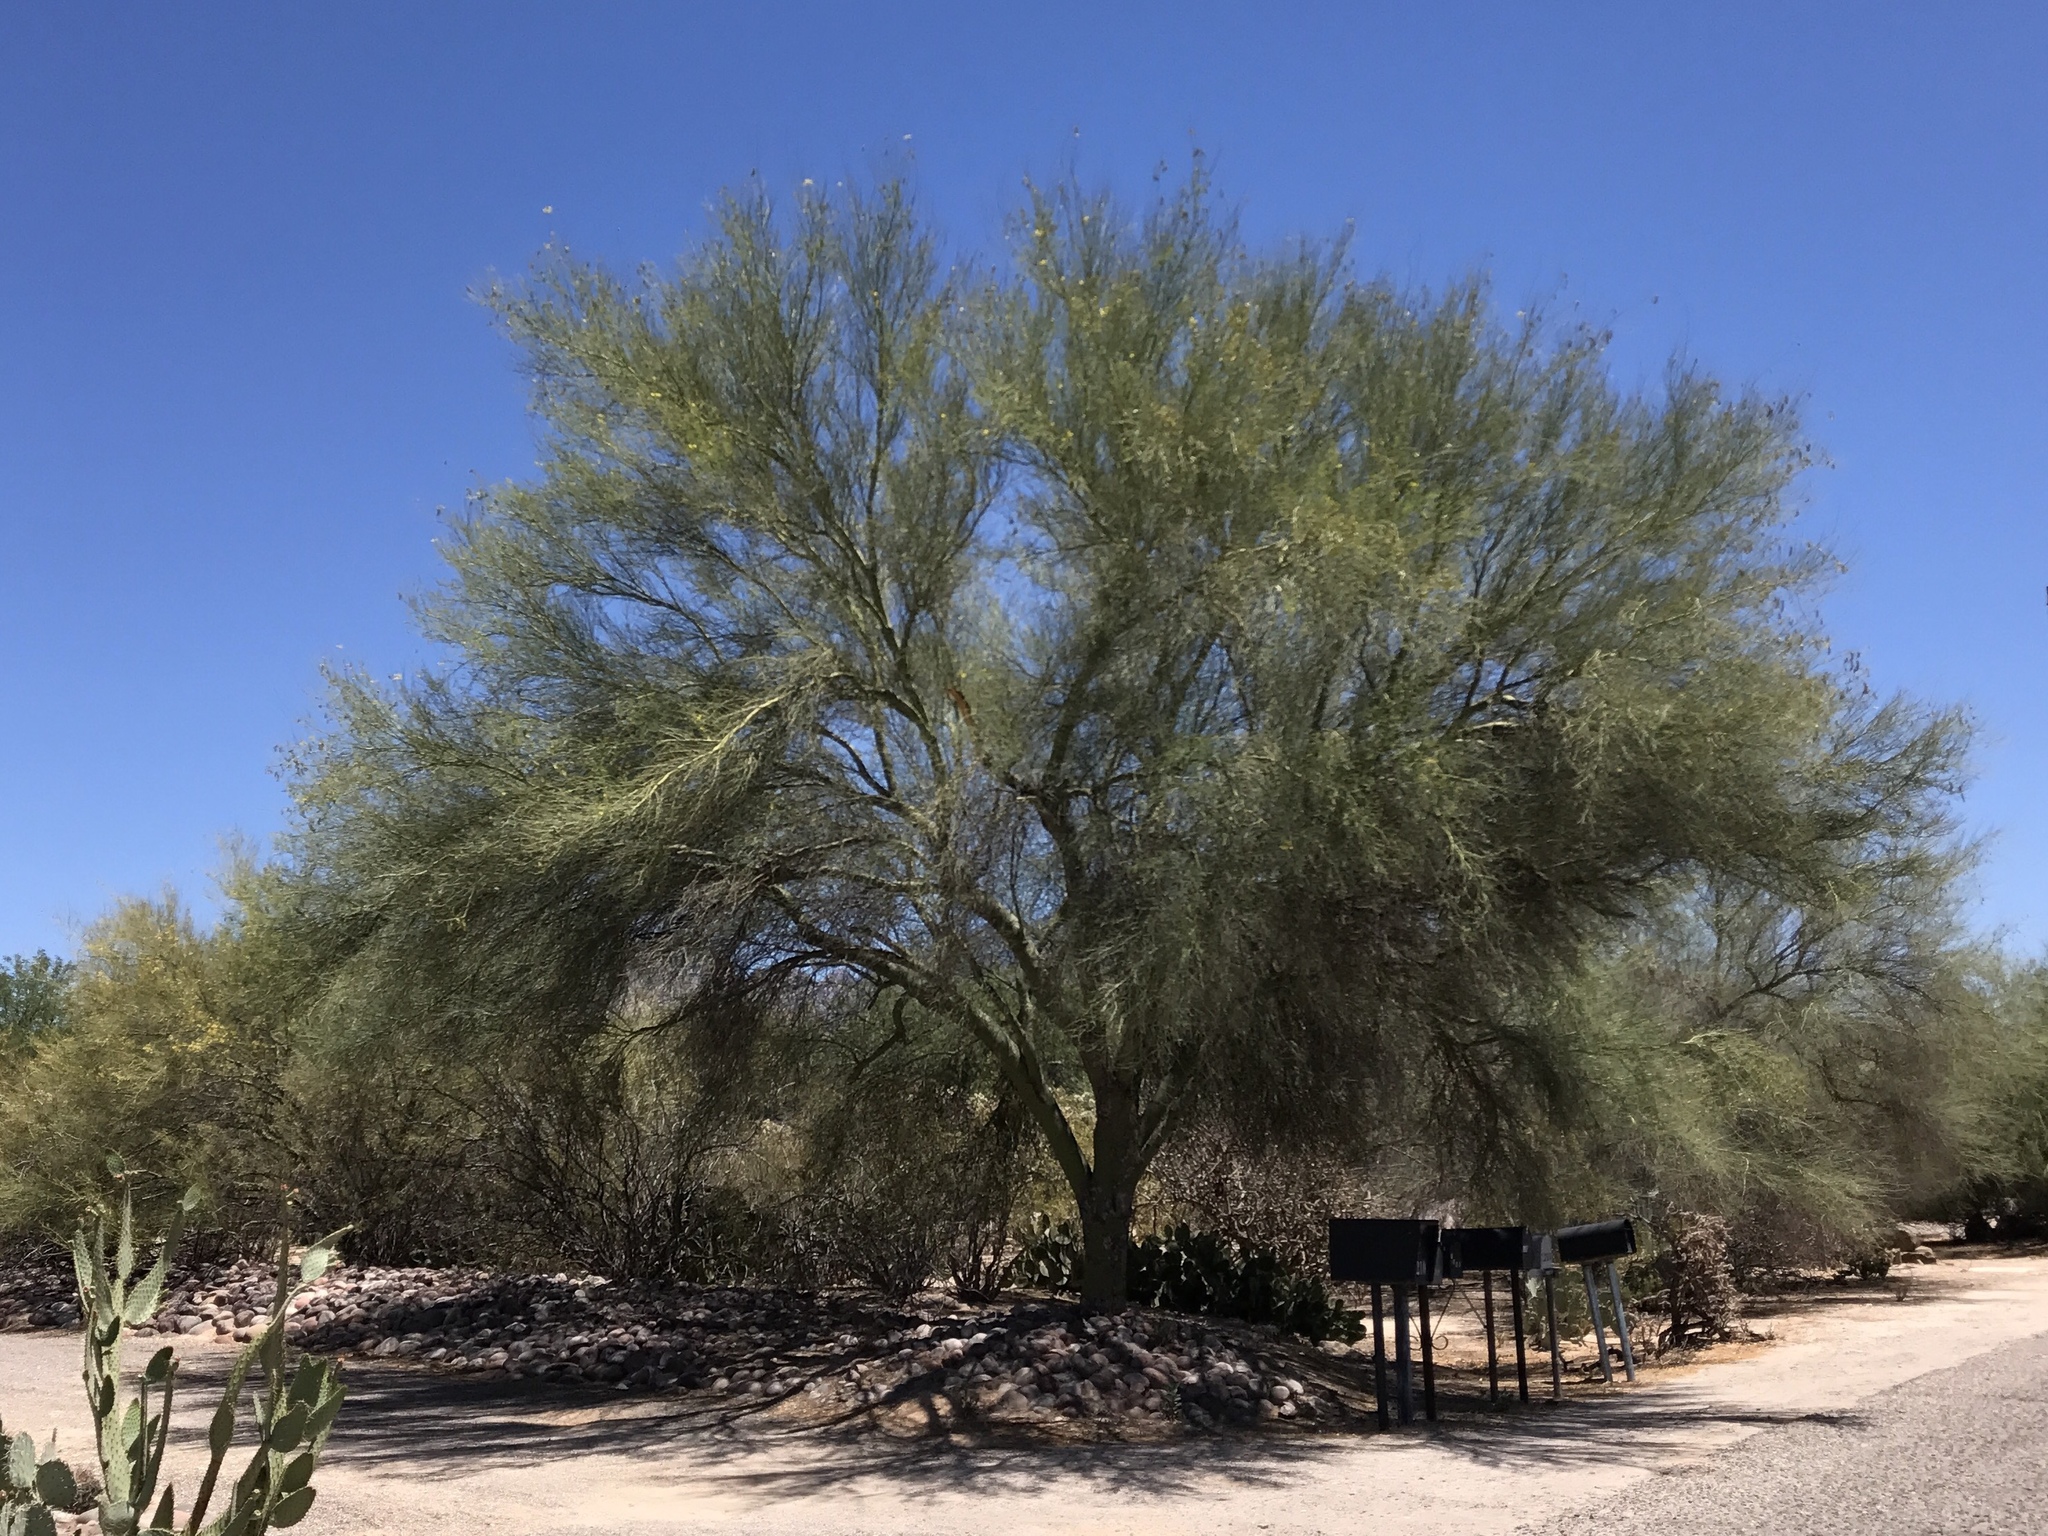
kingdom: Plantae
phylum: Tracheophyta
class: Magnoliopsida
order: Fabales
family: Fabaceae
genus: Parkinsonia
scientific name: Parkinsonia microphylla
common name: Yellow paloverde
